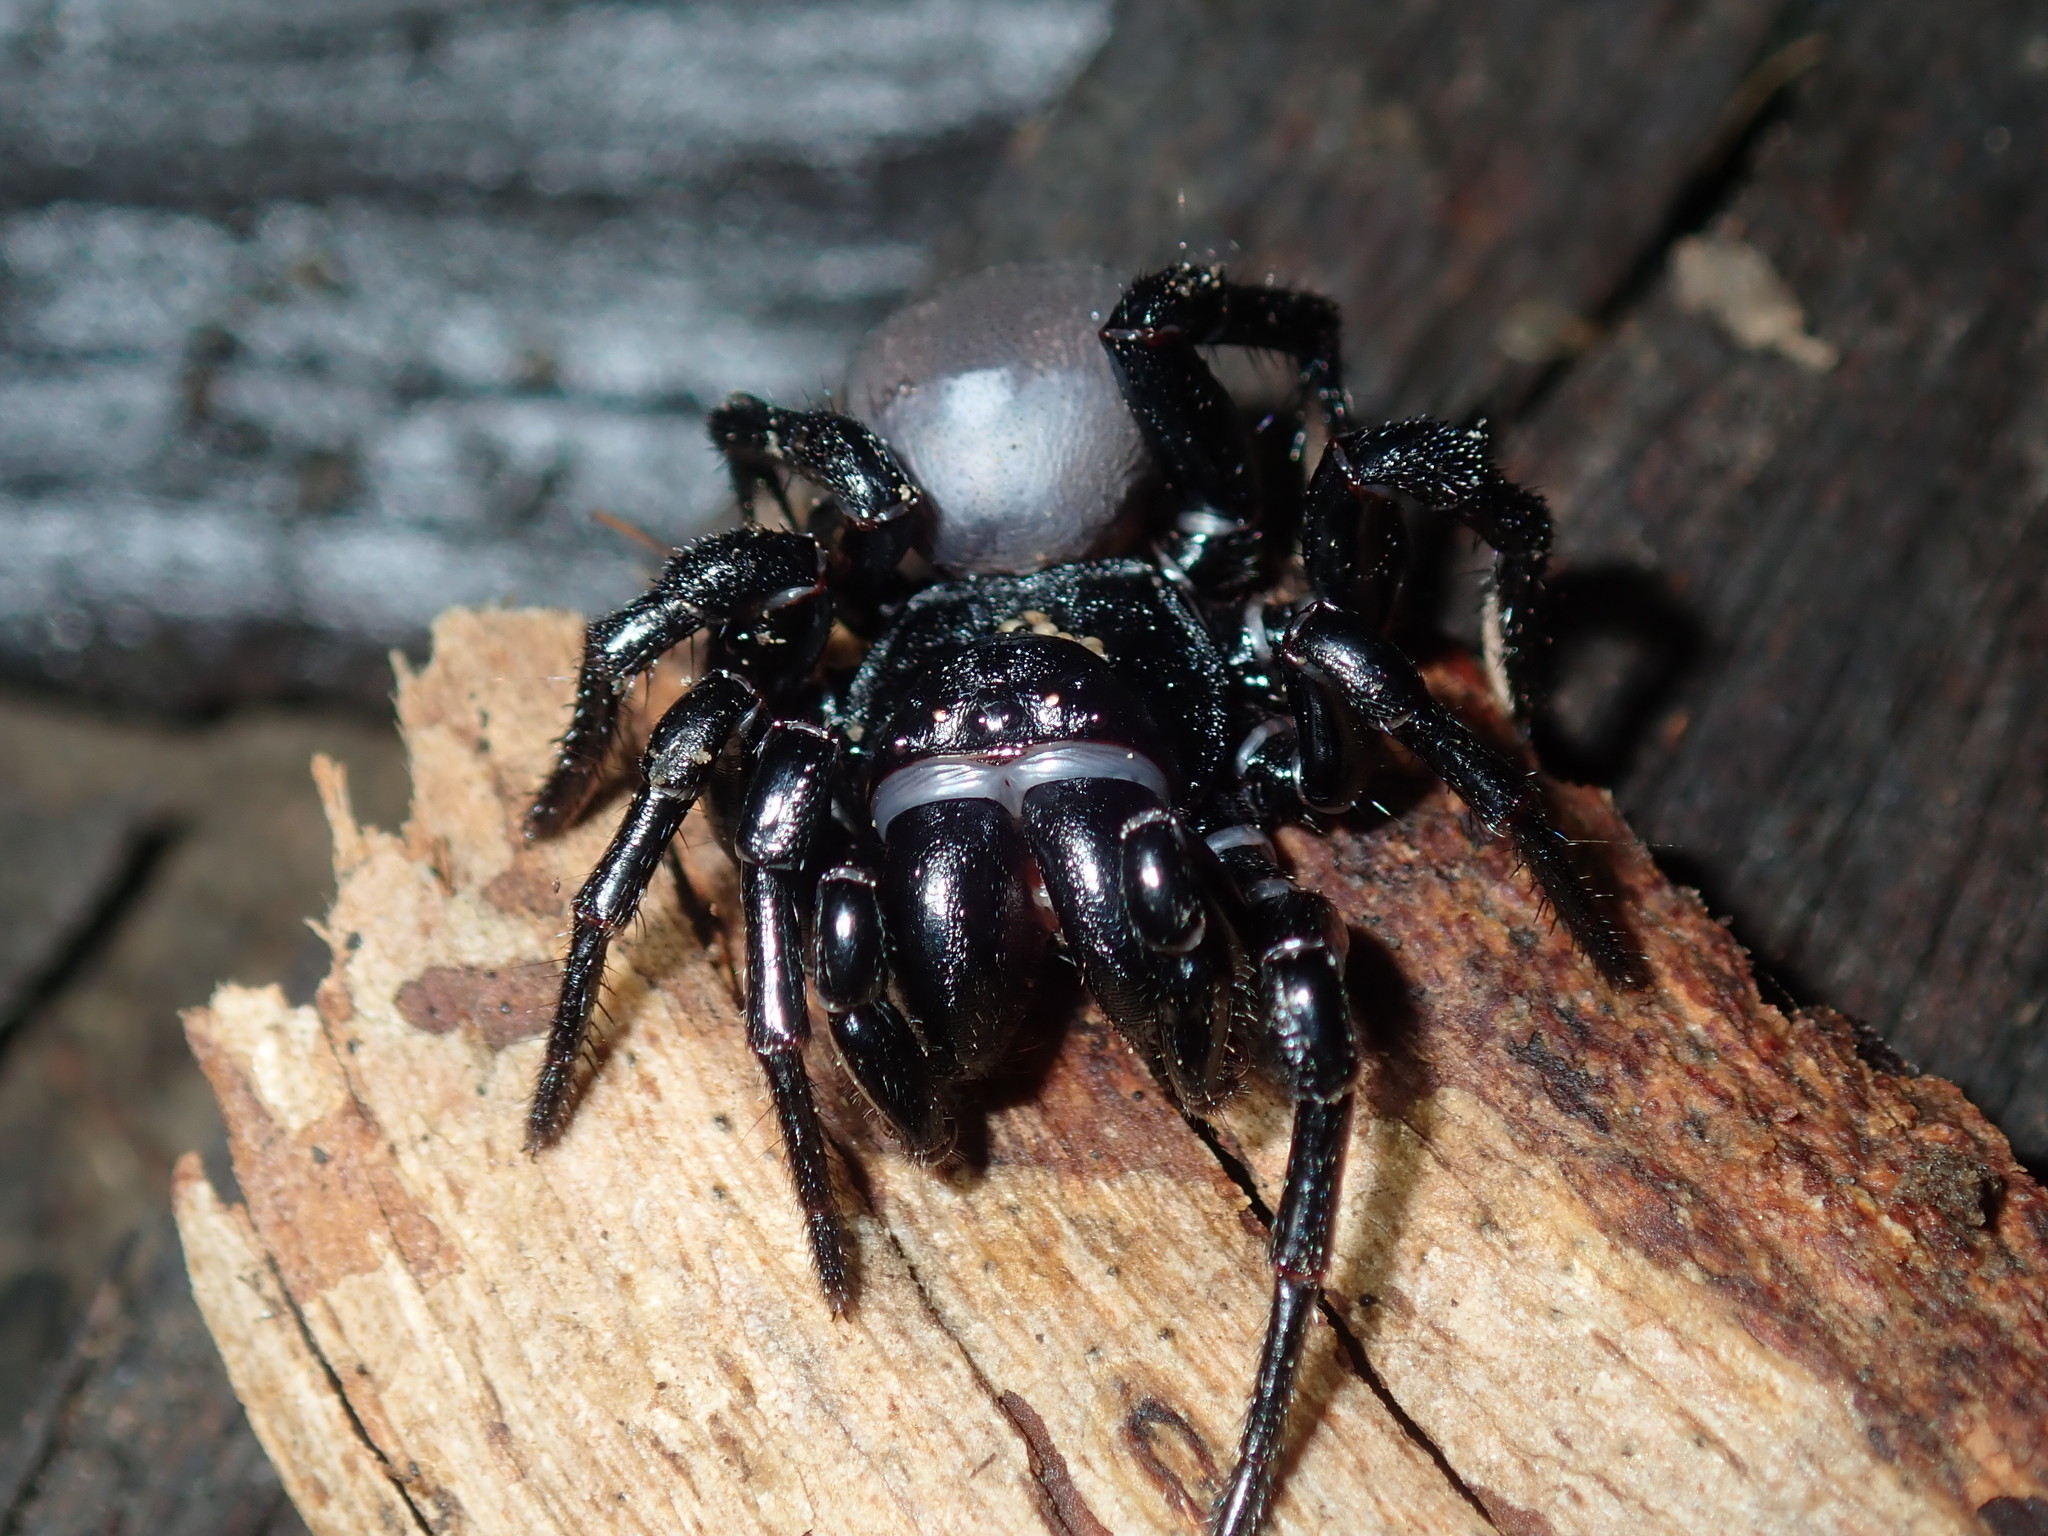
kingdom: Animalia
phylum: Arthropoda
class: Arachnida
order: Araneae
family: Actinopodidae
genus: Missulena
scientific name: Missulena bradleyi
